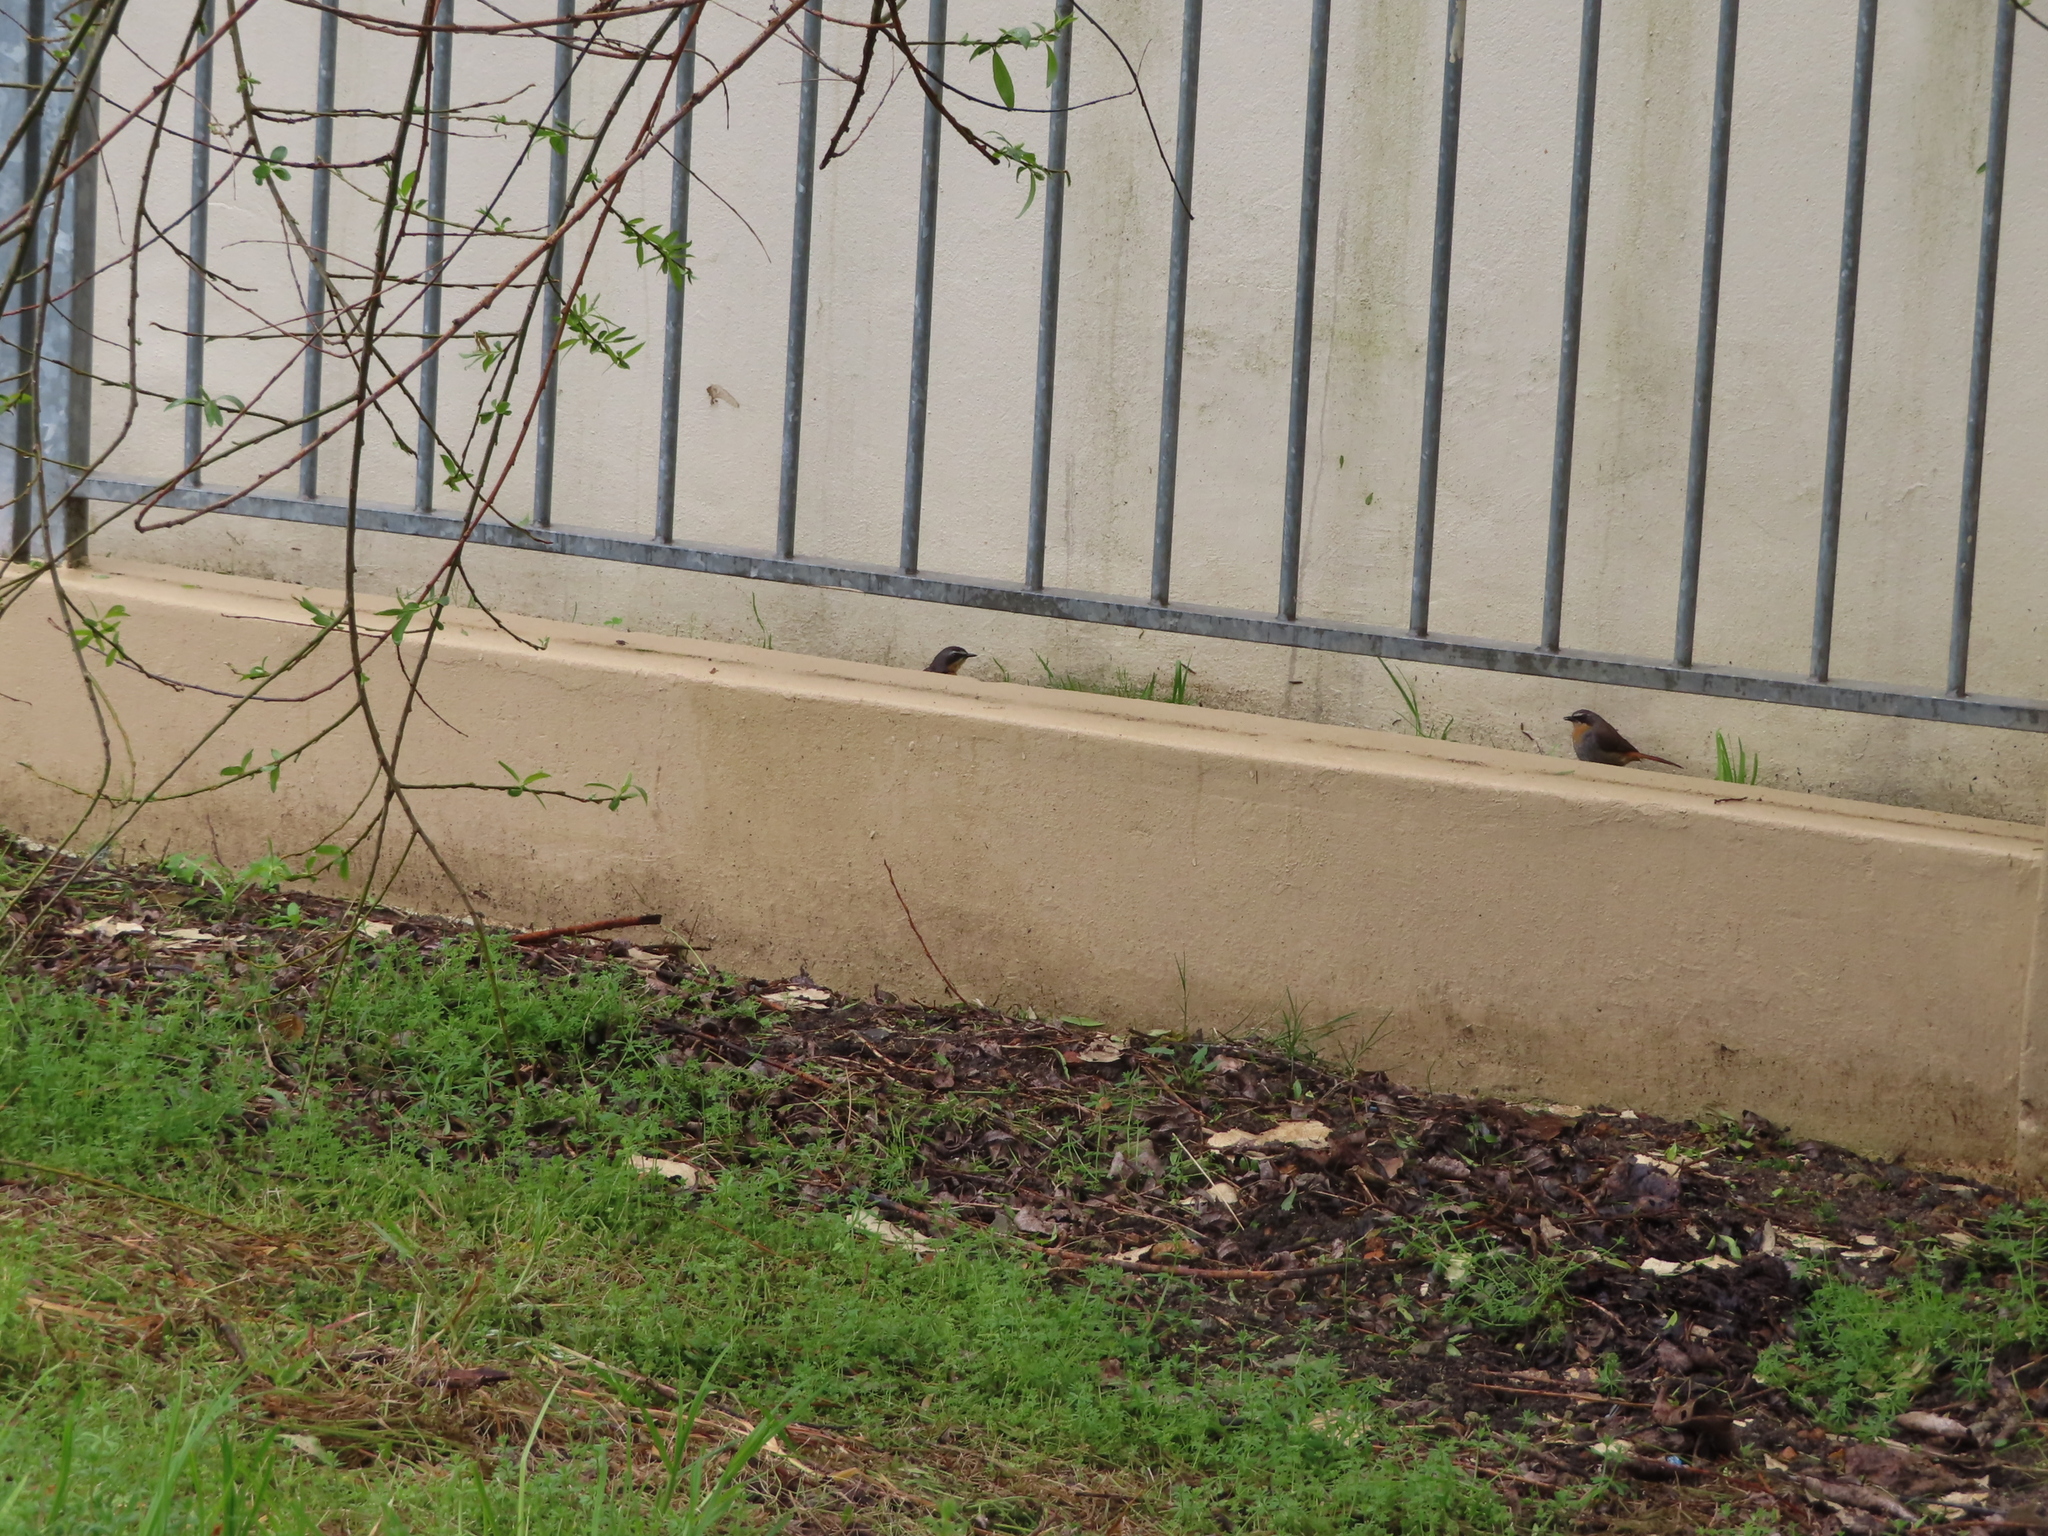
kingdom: Animalia
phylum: Chordata
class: Aves
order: Passeriformes
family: Muscicapidae
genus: Cossypha
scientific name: Cossypha caffra
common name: Cape robin-chat
